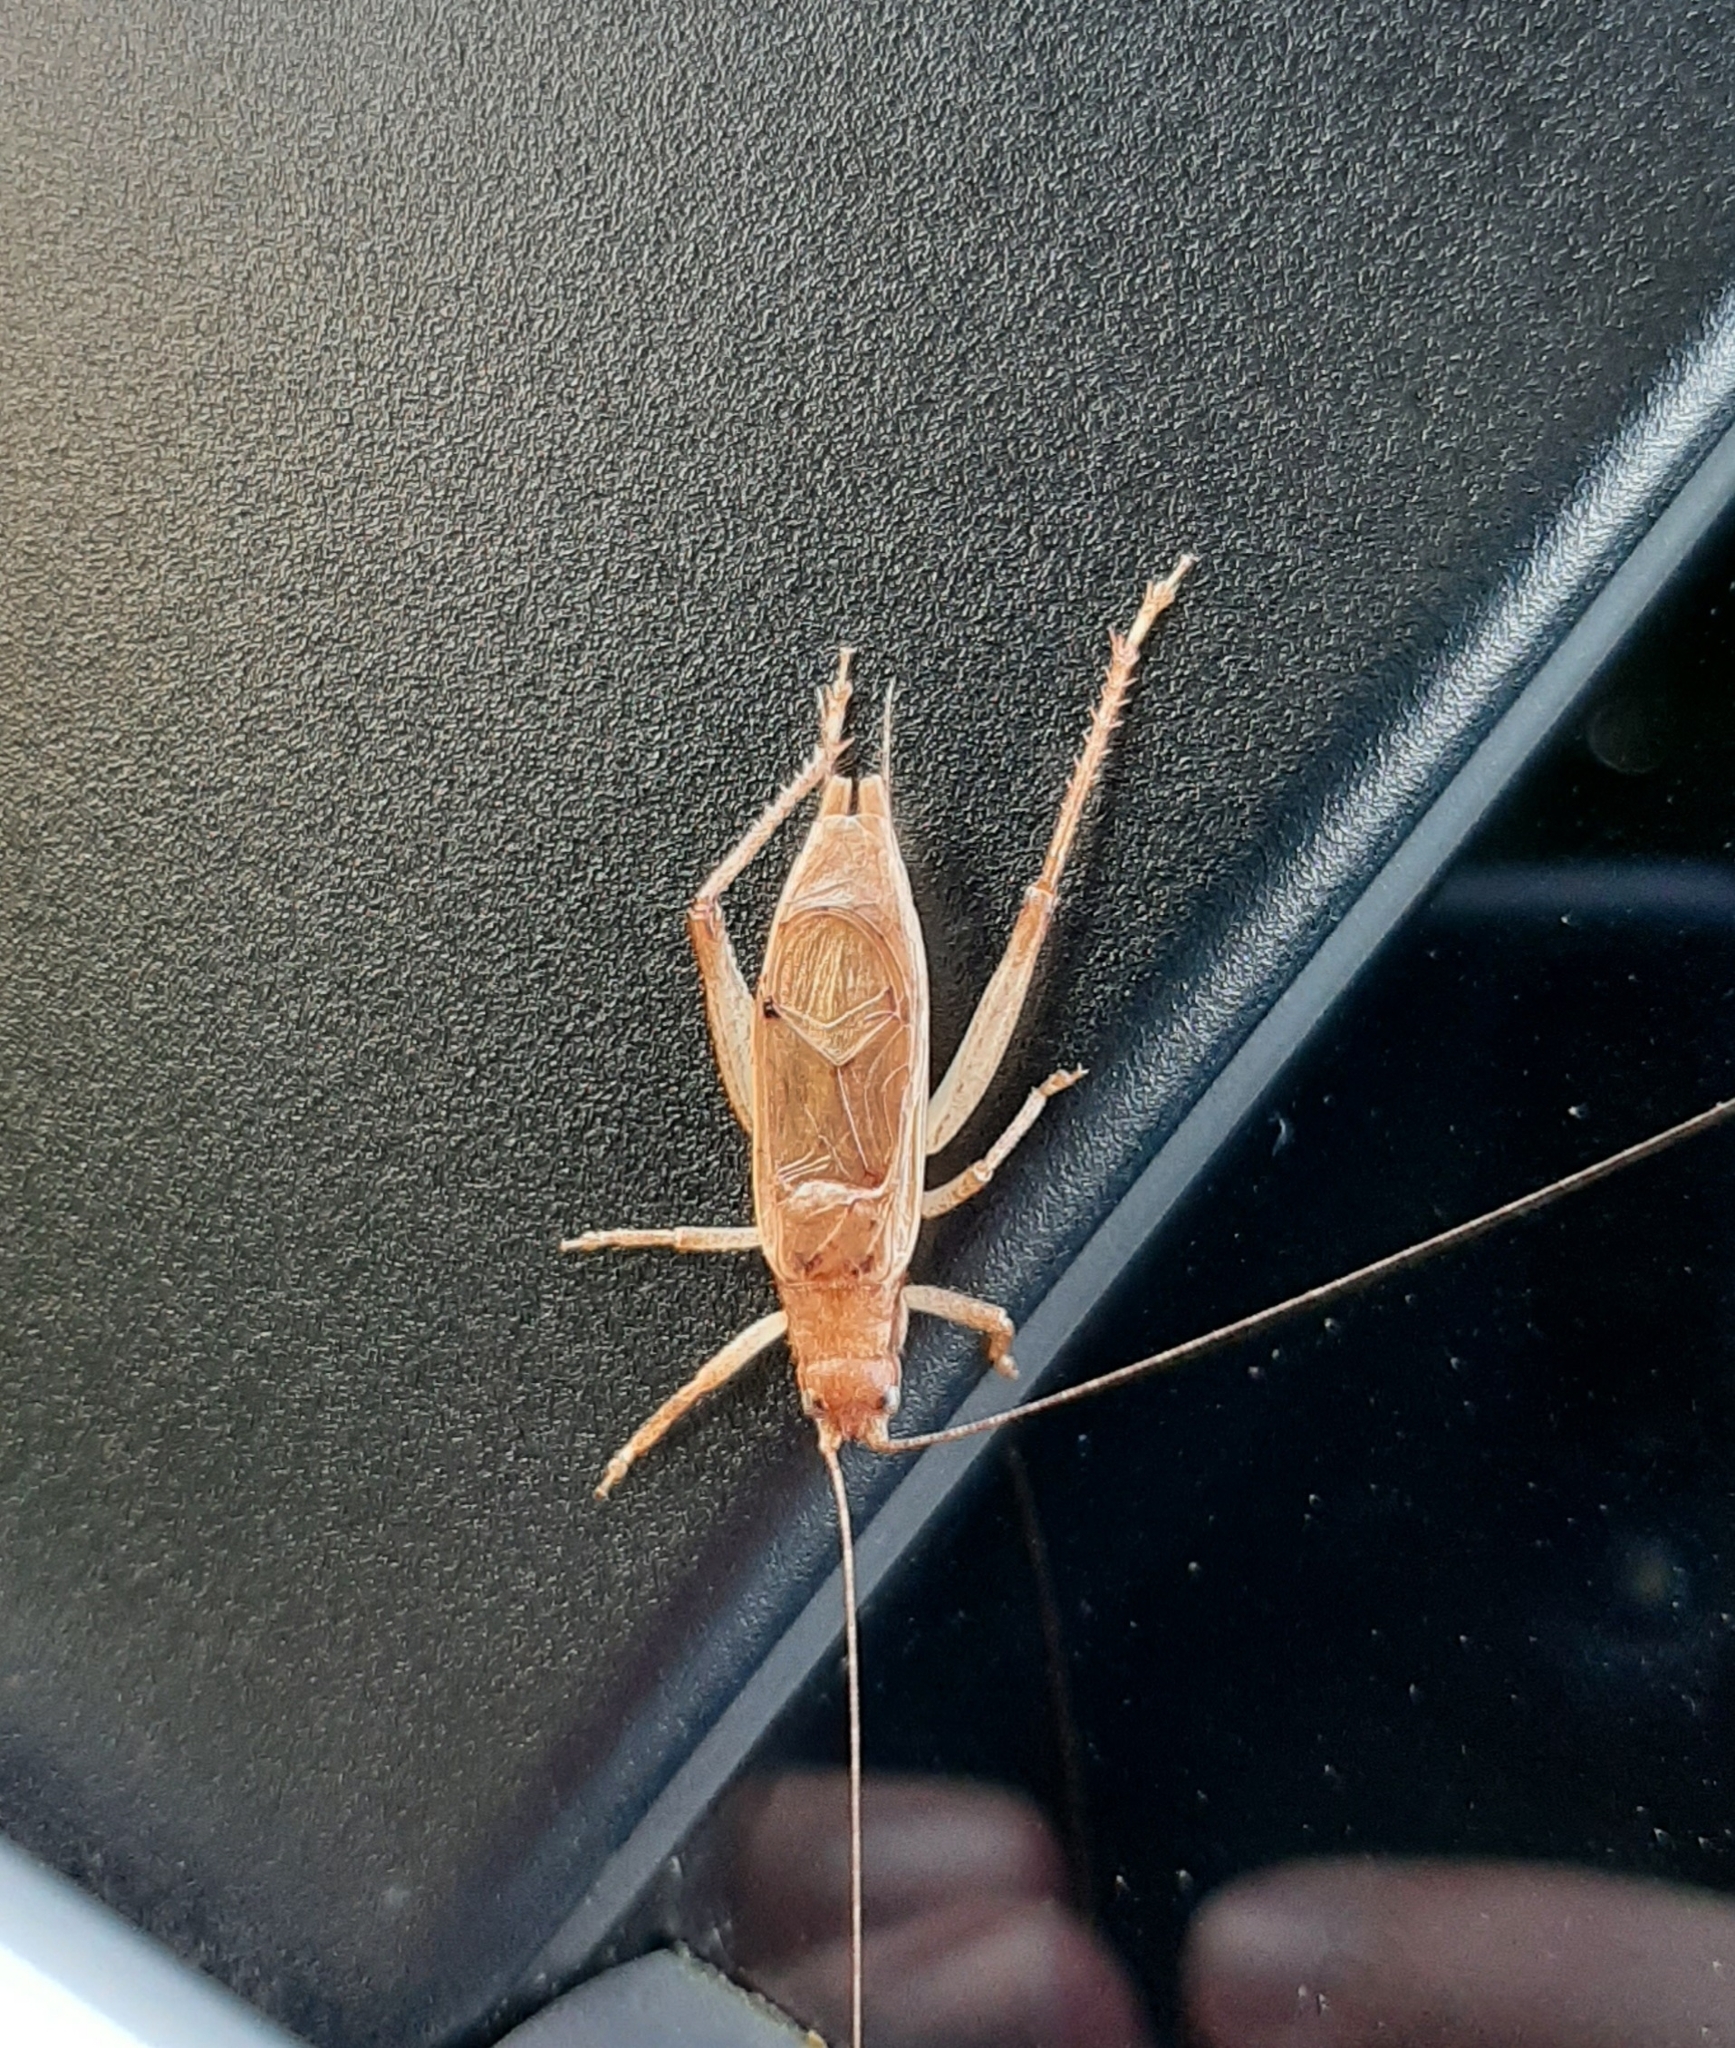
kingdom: Animalia
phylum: Arthropoda
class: Insecta
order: Orthoptera
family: Gryllidae
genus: Hapithus
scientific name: Hapithus saltator
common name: Jumping bush cricket
